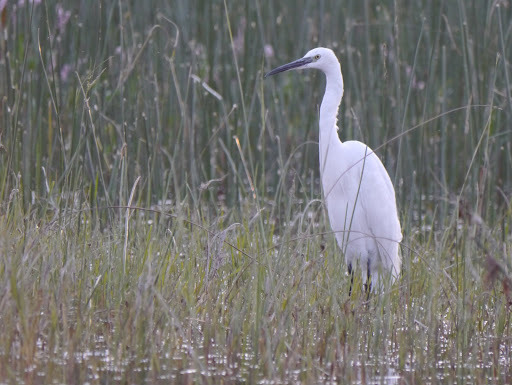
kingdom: Animalia
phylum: Chordata
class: Aves
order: Pelecaniformes
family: Ardeidae
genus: Egretta
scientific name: Egretta garzetta
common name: Little egret
